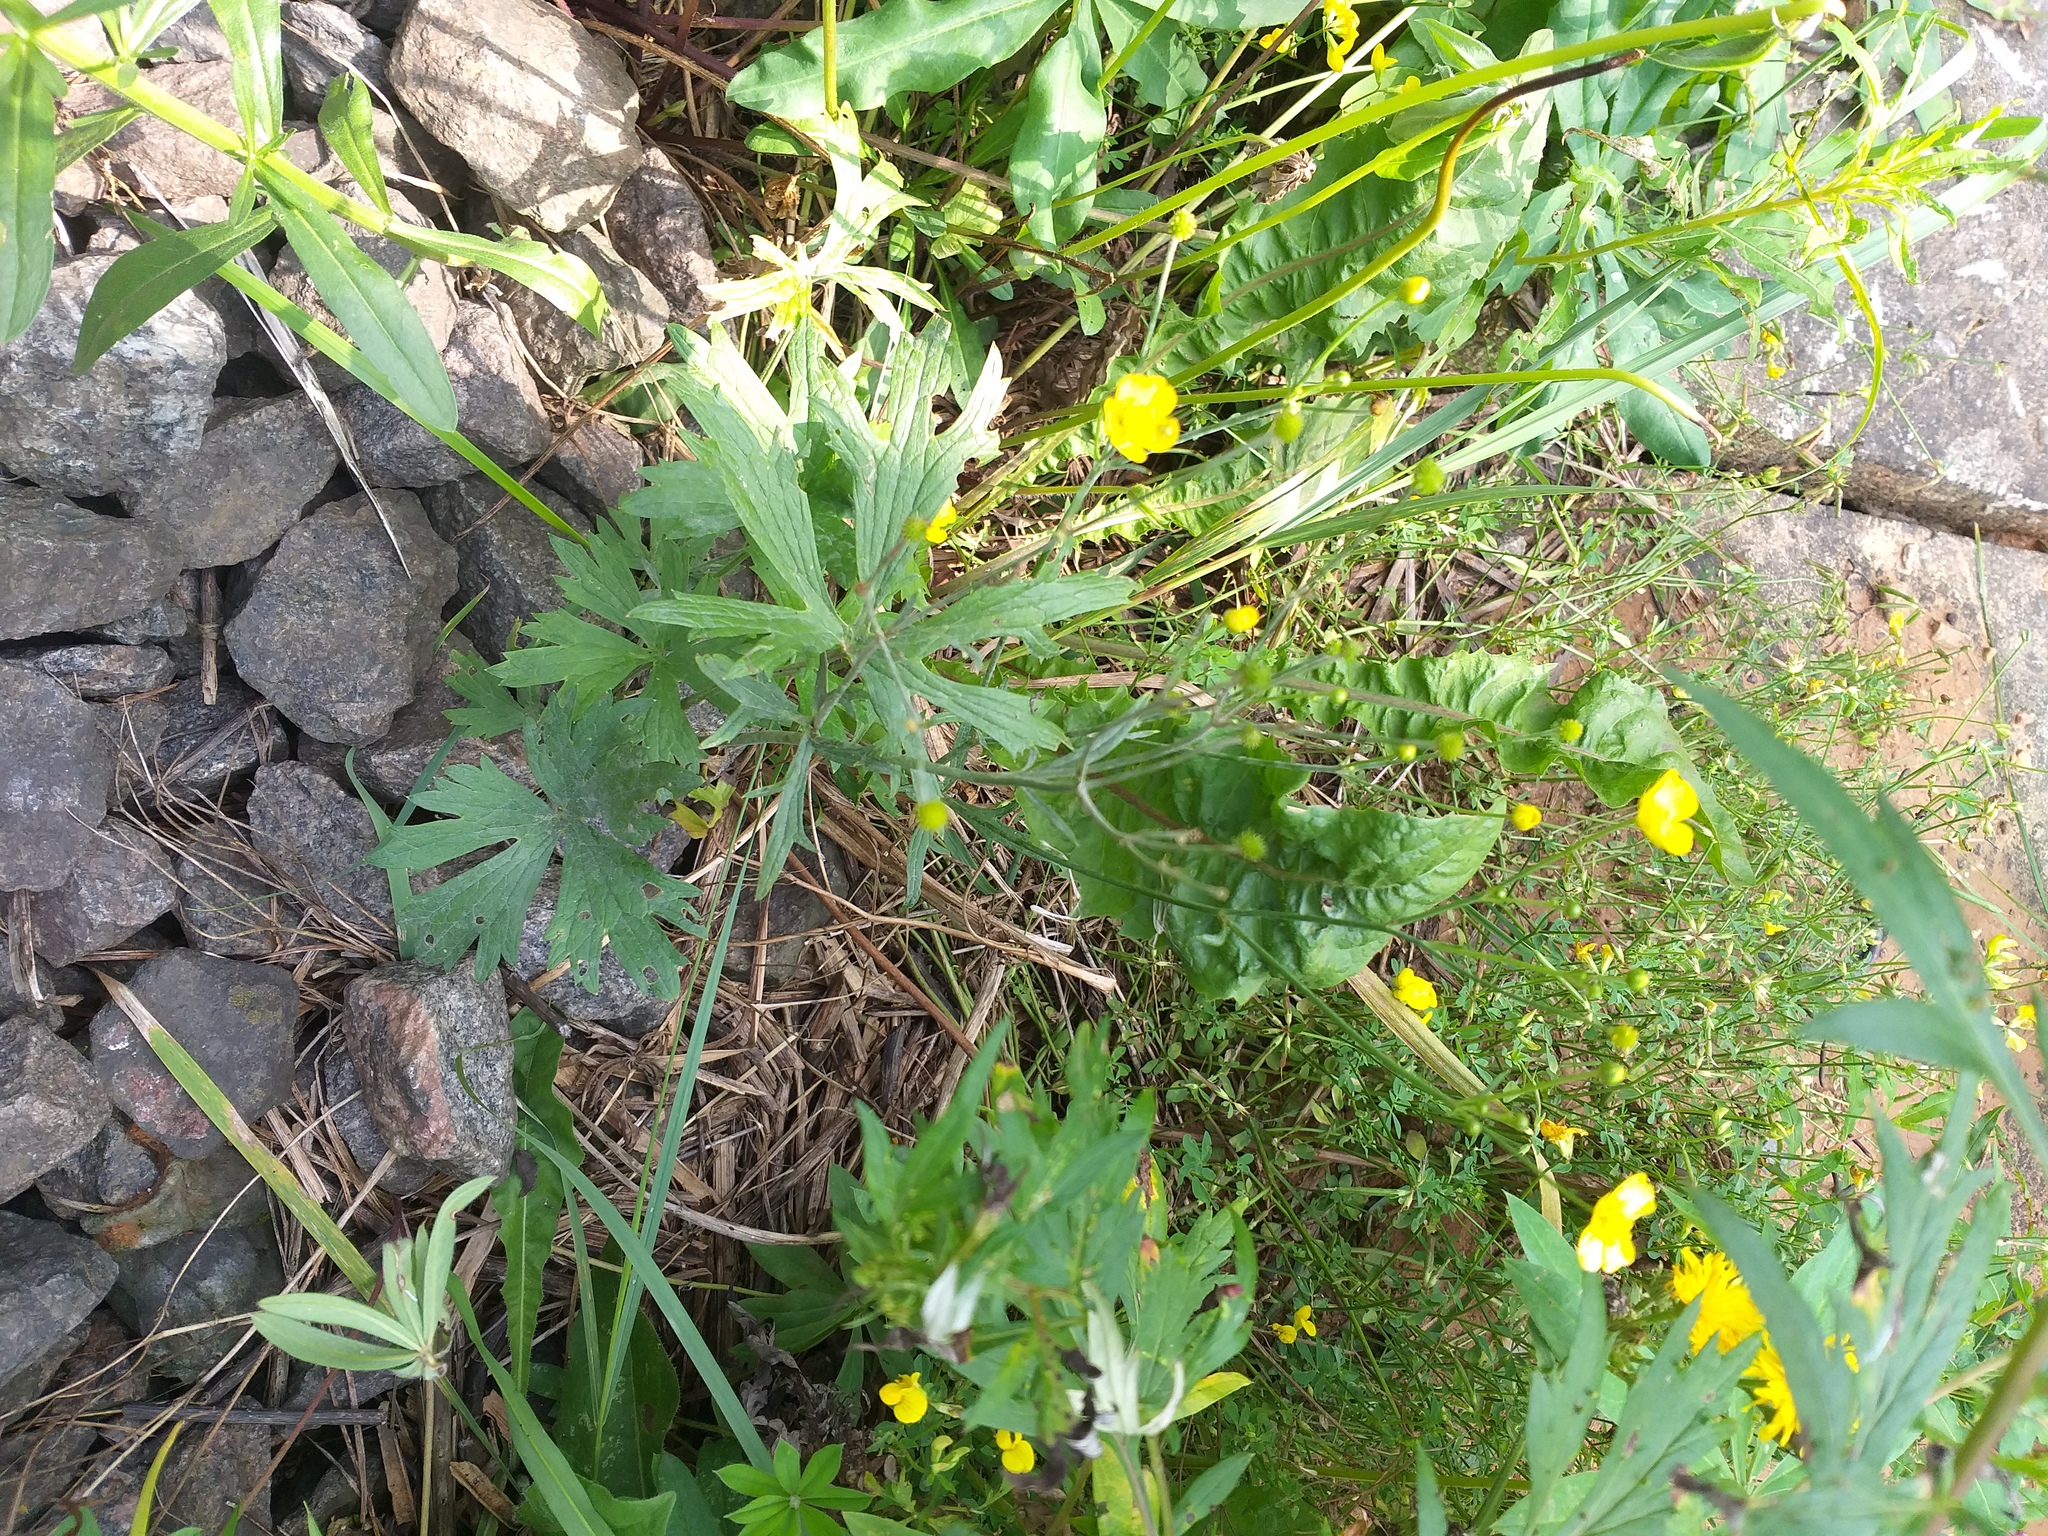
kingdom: Plantae
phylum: Tracheophyta
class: Magnoliopsida
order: Ranunculales
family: Ranunculaceae
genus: Ranunculus
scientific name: Ranunculus acris
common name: Meadow buttercup
